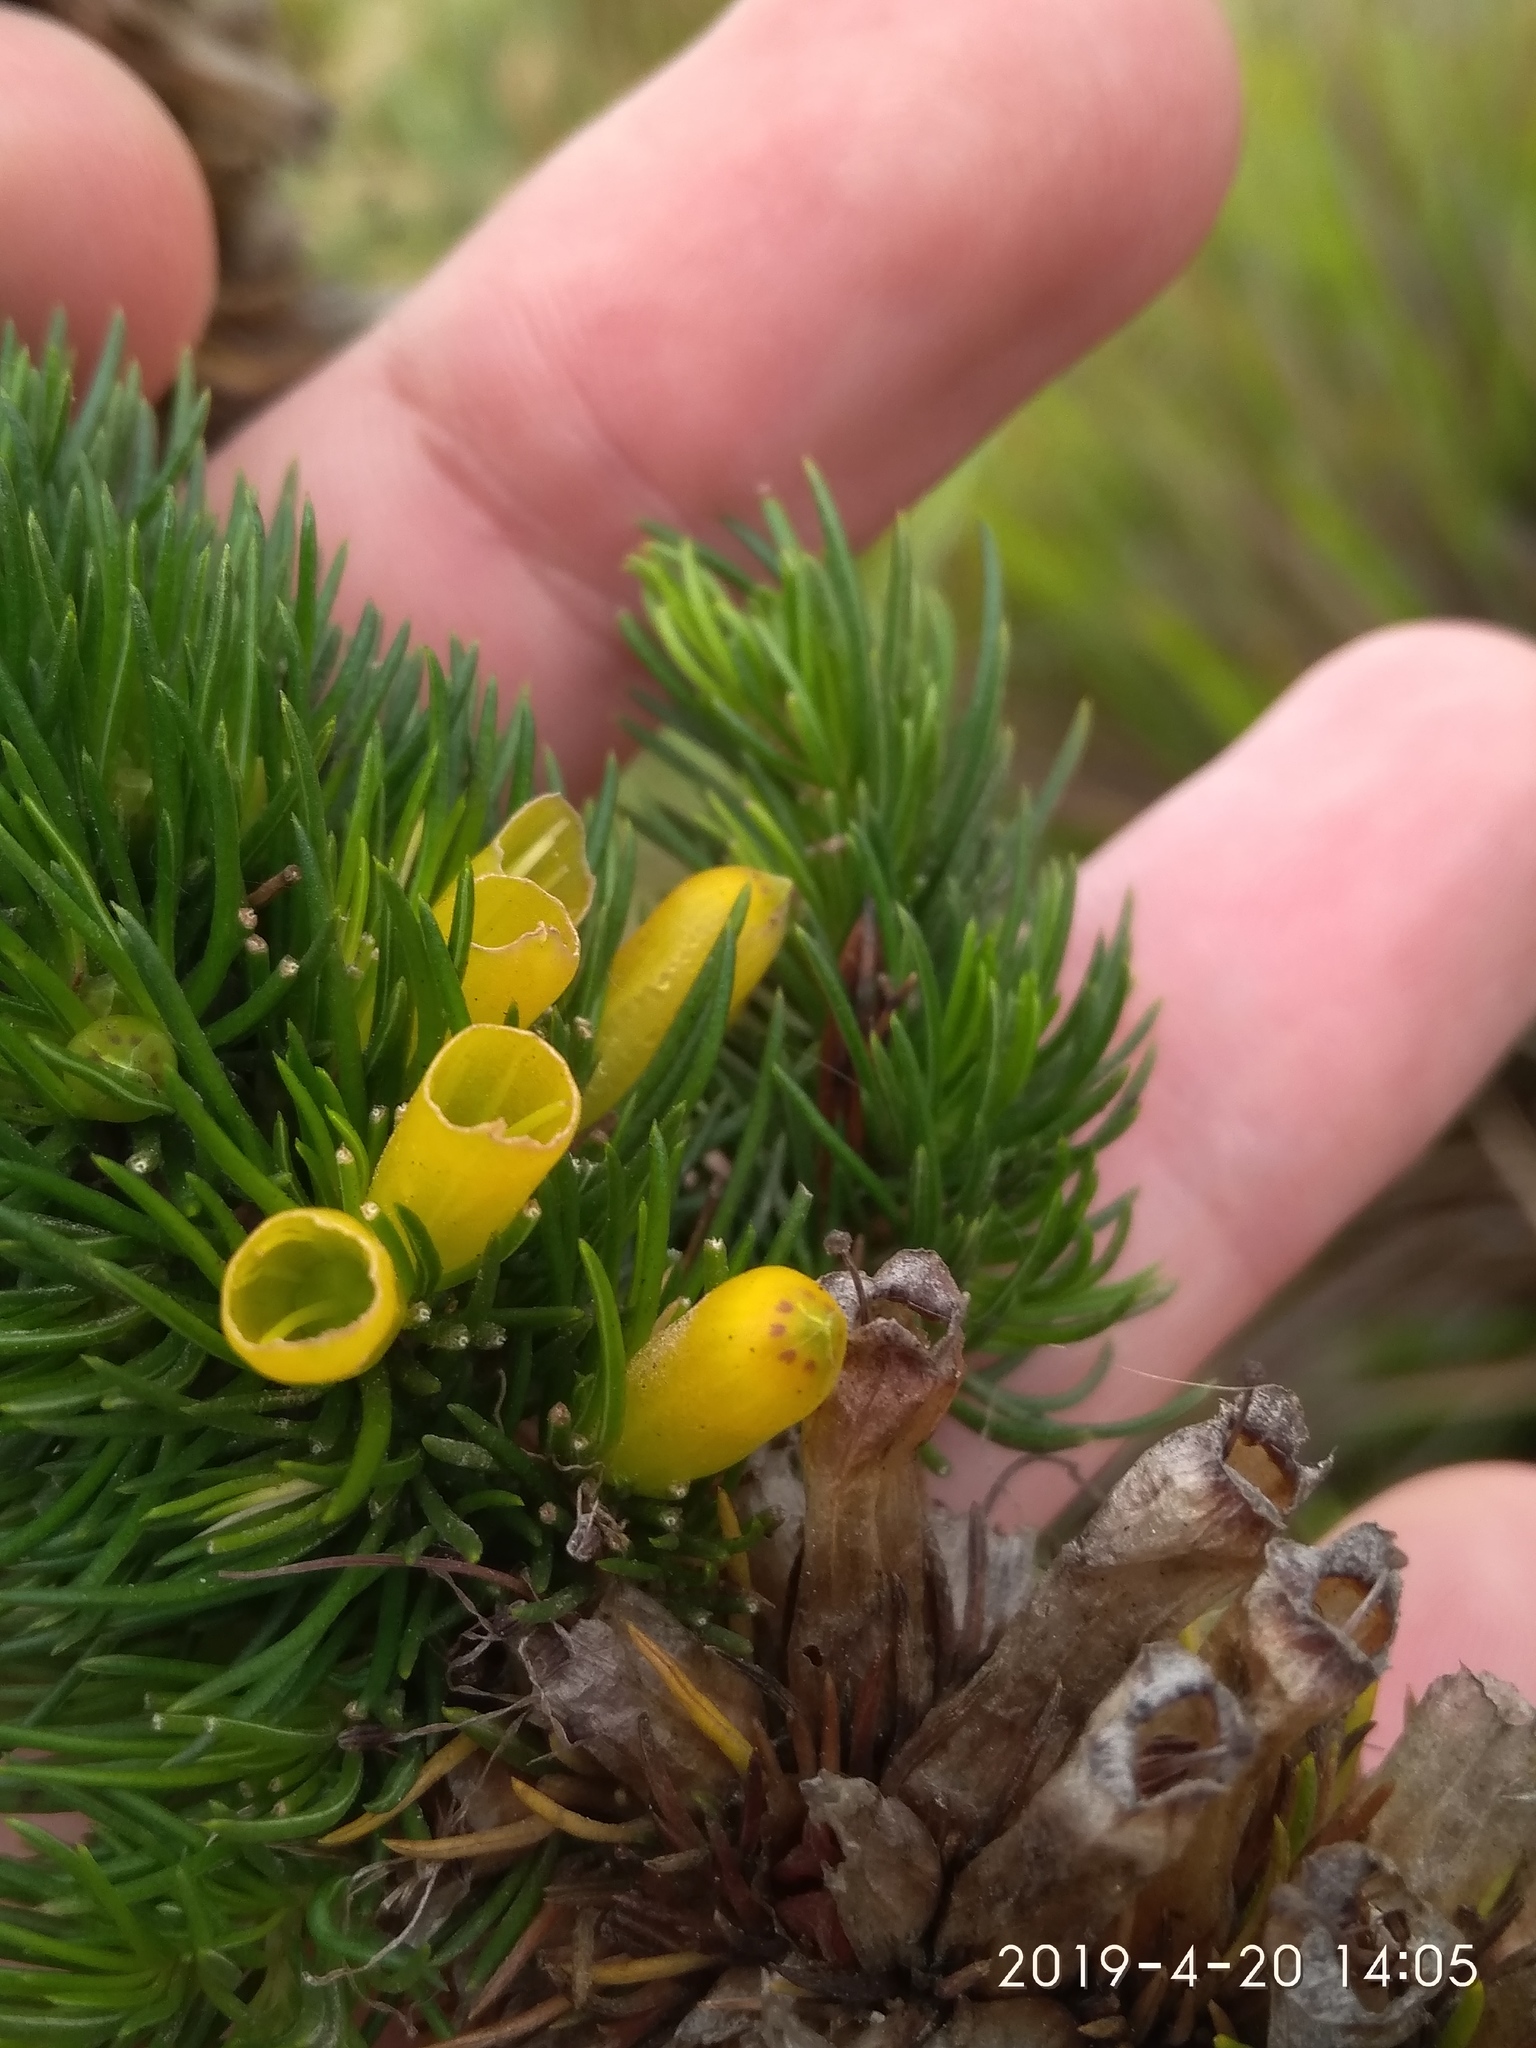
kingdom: Plantae
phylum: Tracheophyta
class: Magnoliopsida
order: Ericales
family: Ericaceae
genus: Erica
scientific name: Erica patersonia
